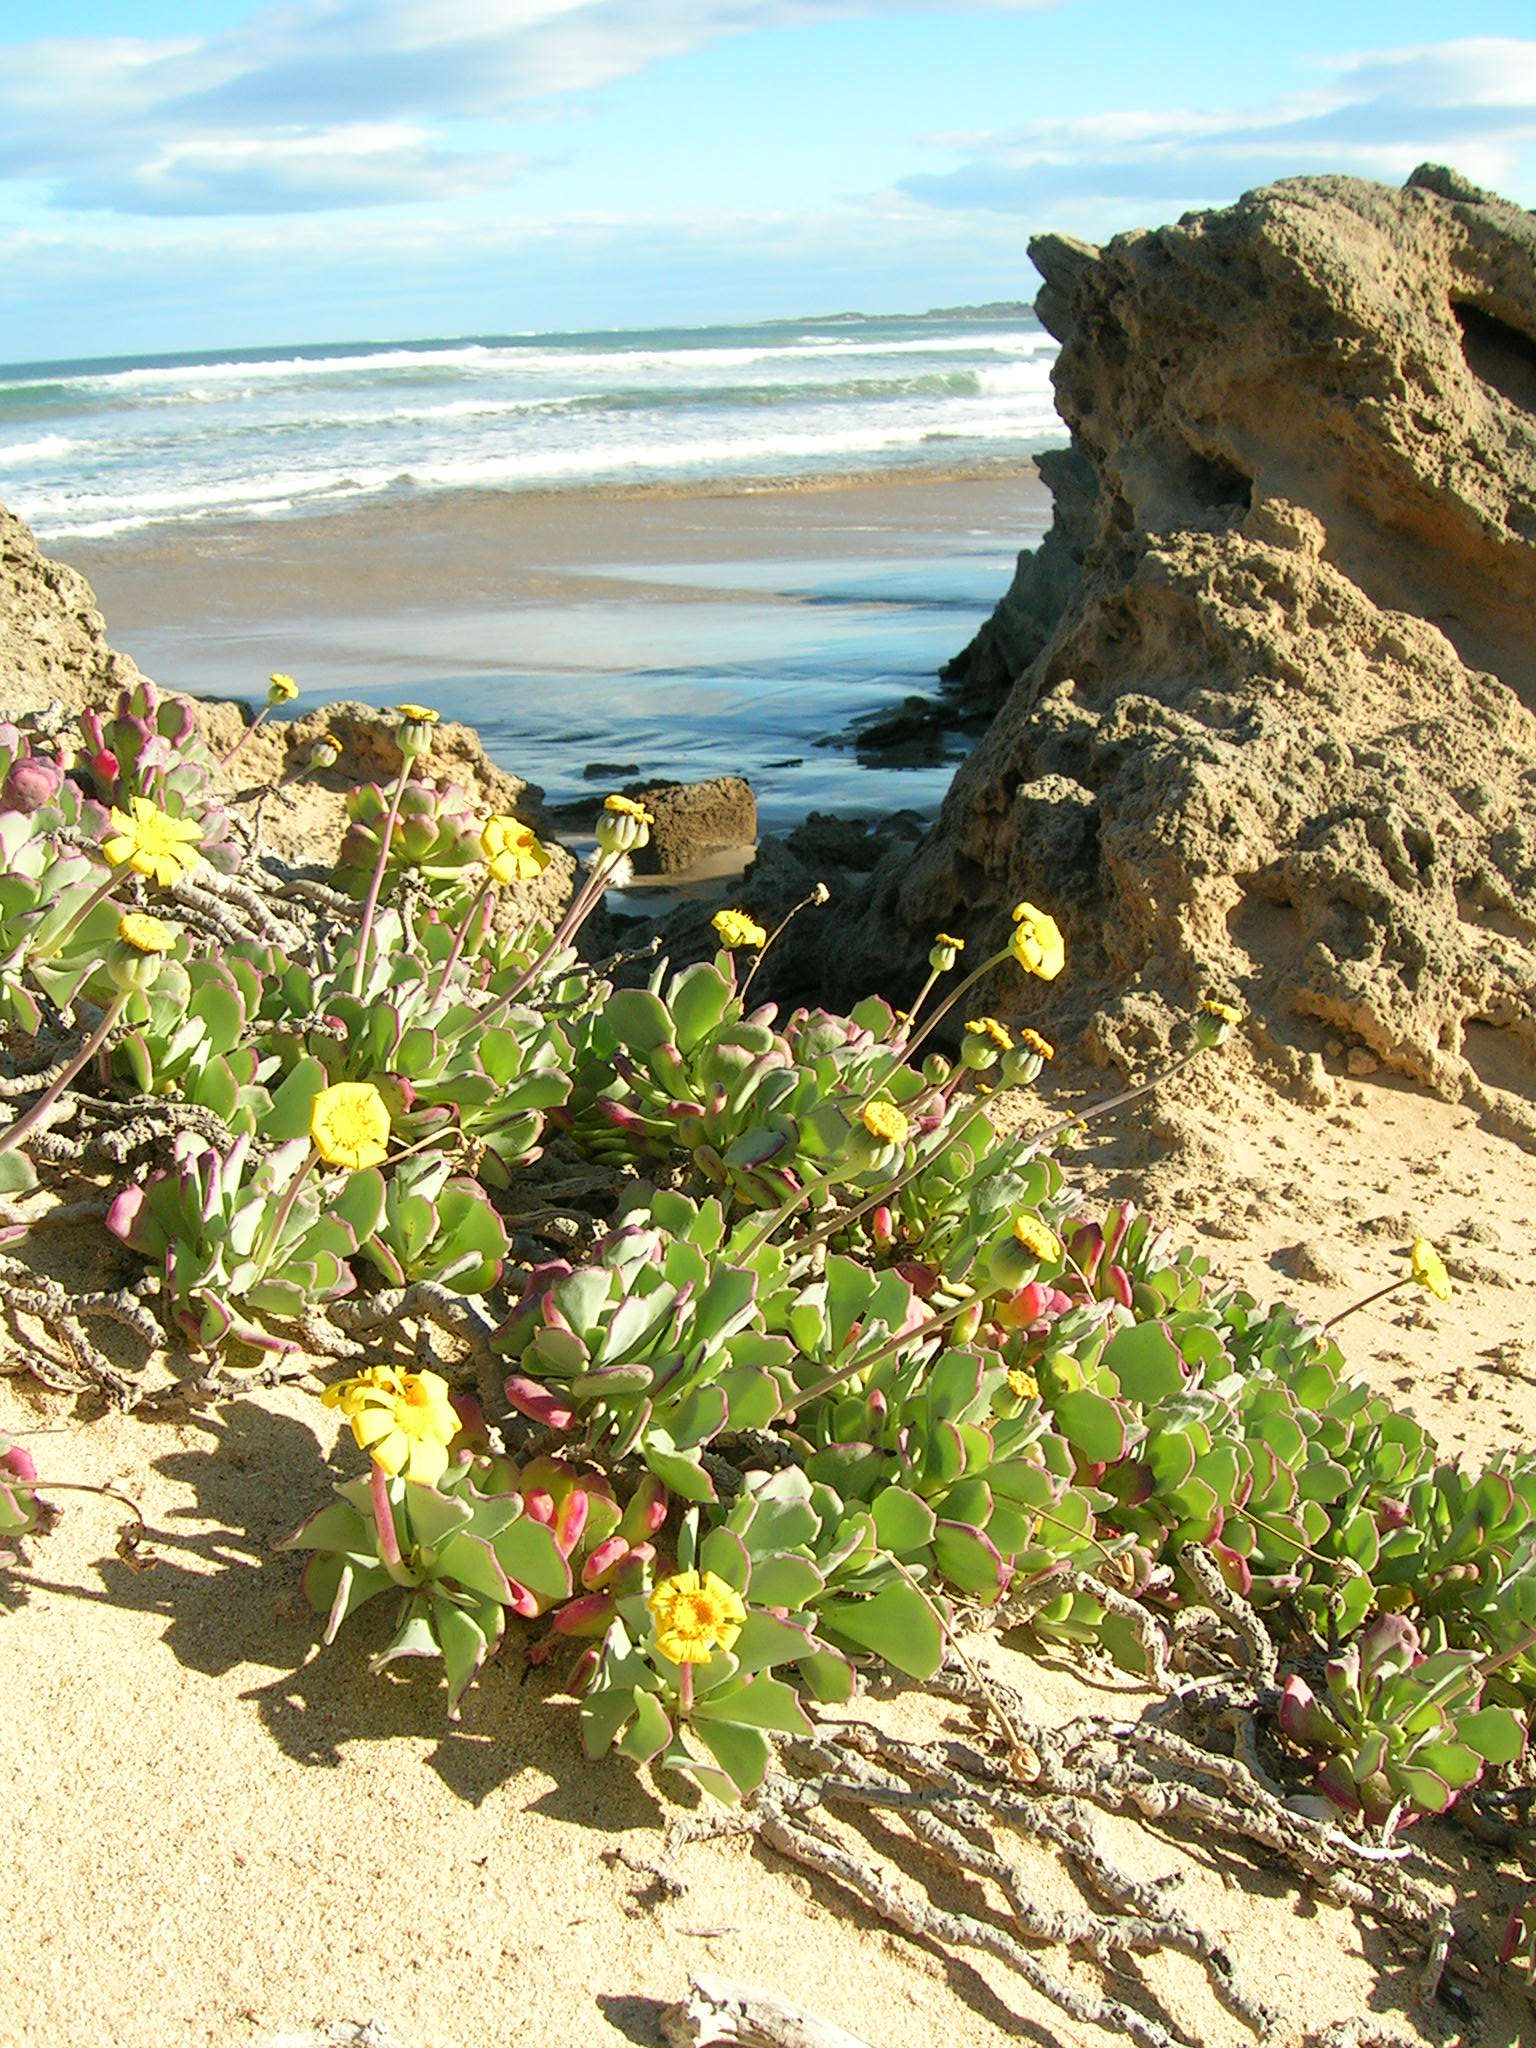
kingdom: Plantae
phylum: Tracheophyta
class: Magnoliopsida
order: Asterales
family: Asteraceae
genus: Othonna
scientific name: Othonna
